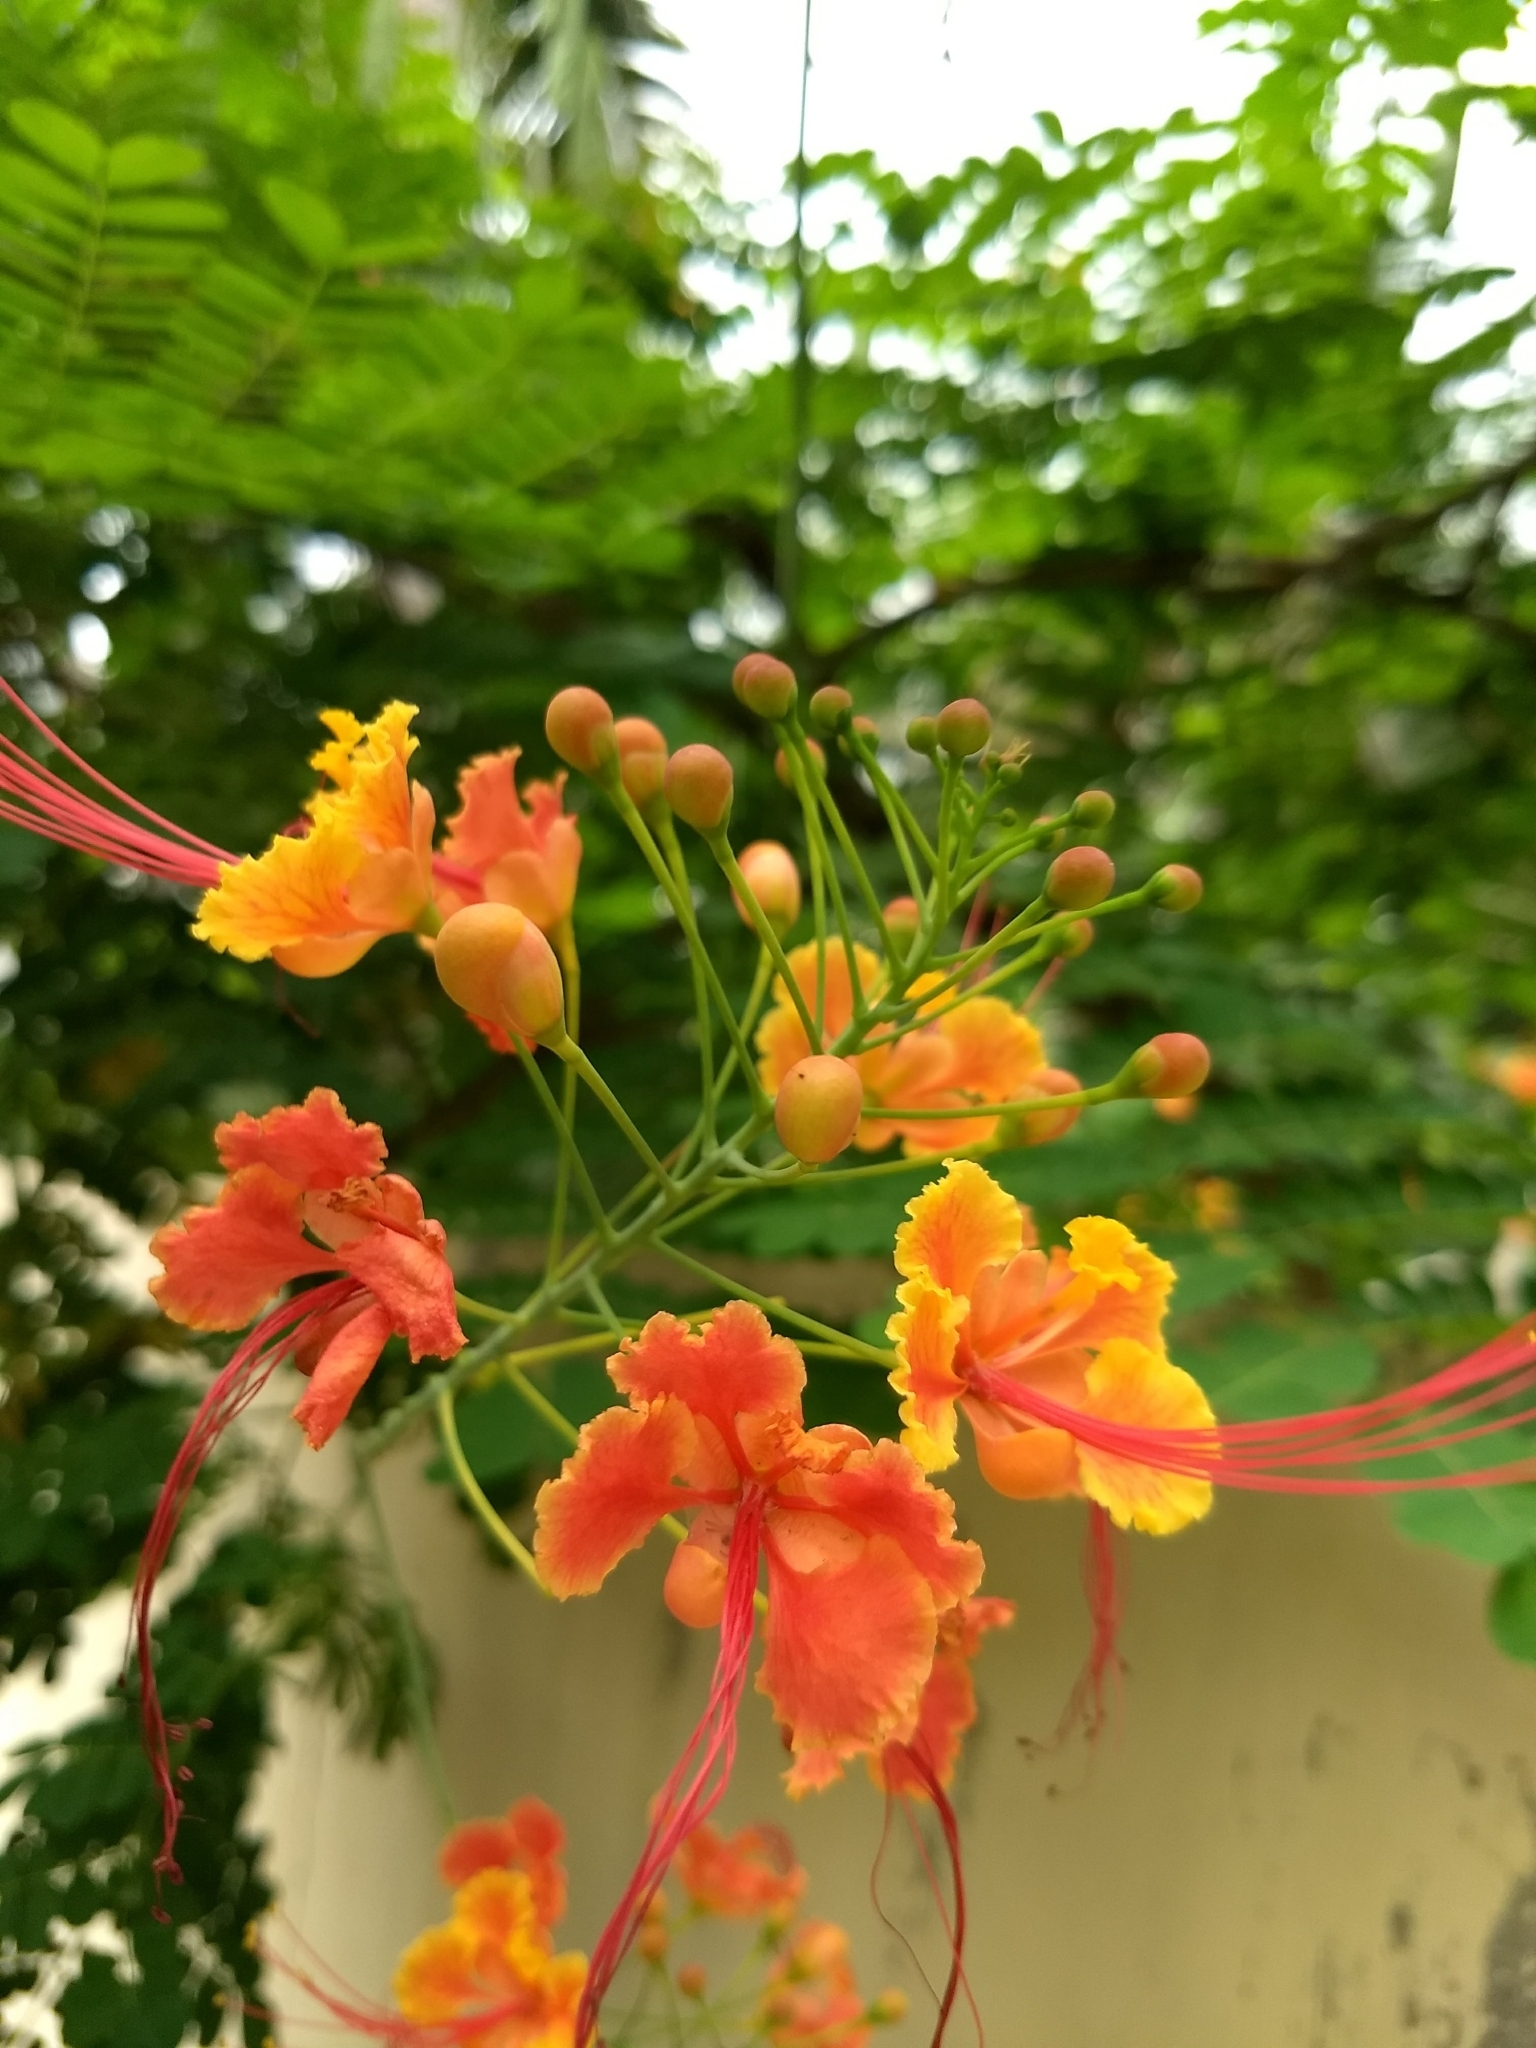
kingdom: Plantae
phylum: Tracheophyta
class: Magnoliopsida
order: Fabales
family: Fabaceae
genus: Caesalpinia
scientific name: Caesalpinia pulcherrima
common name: Pride-of-barbados
